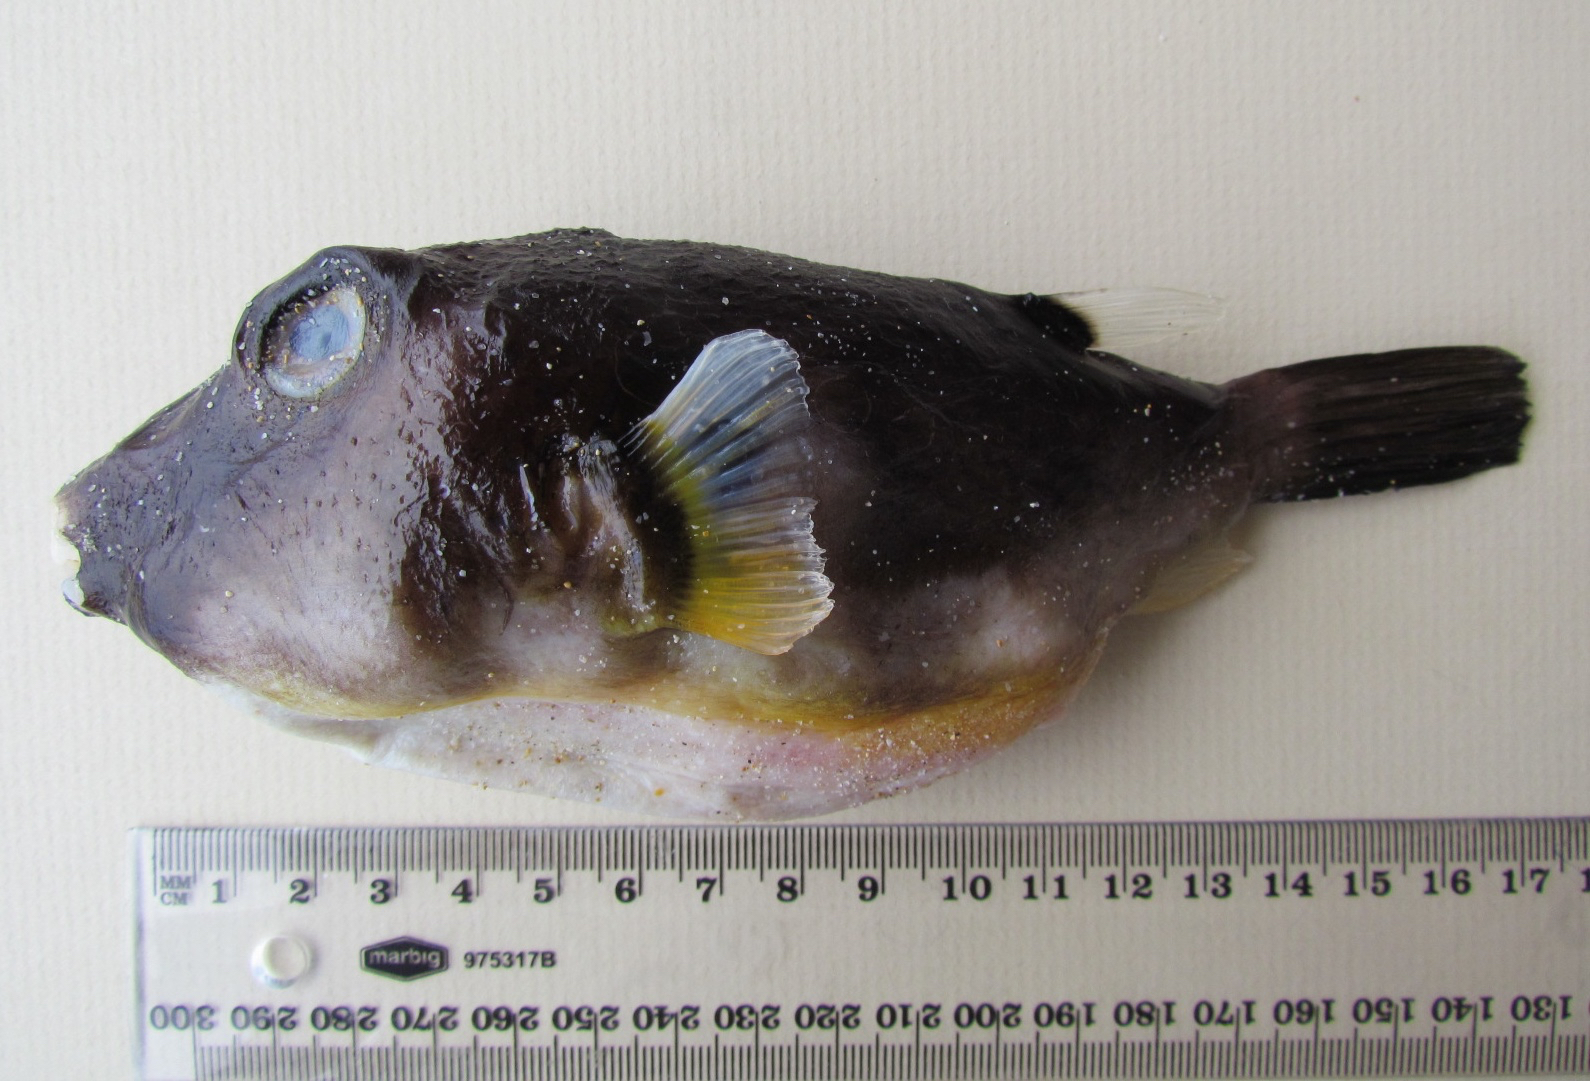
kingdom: Animalia
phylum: Chordata
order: Tetraodontiformes
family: Tetraodontidae
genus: Omegophora
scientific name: Omegophora cyanopunctata
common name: Bluespotted toadfish
